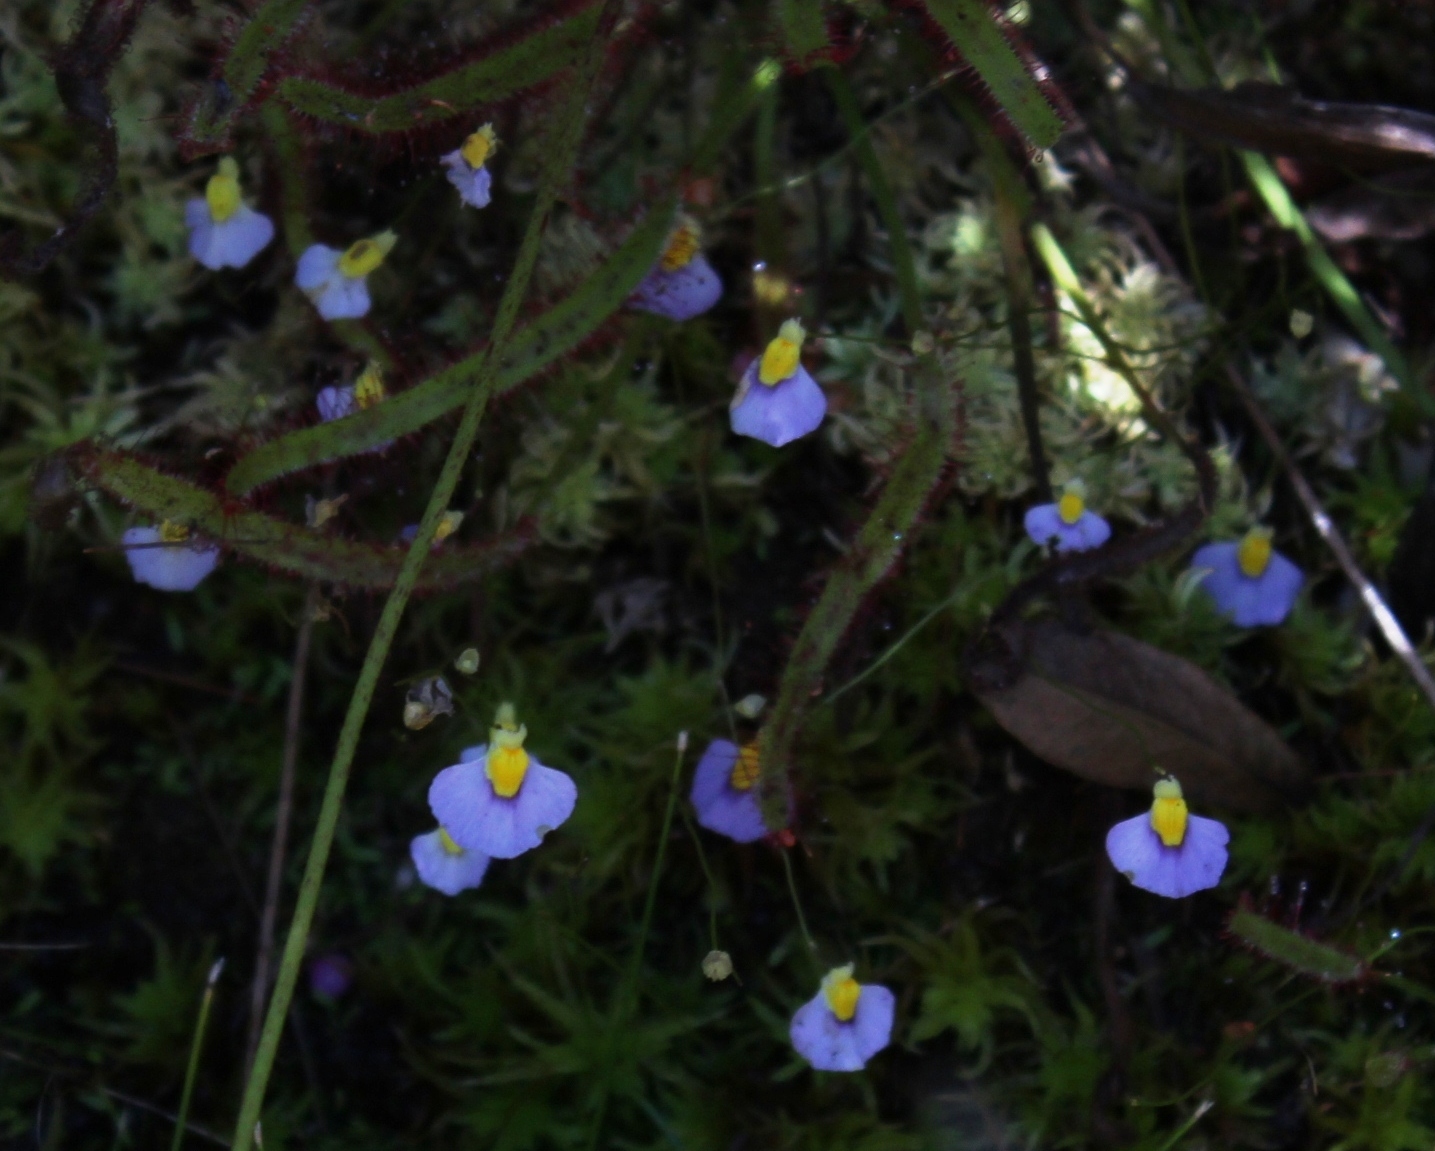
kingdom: Plantae
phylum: Tracheophyta
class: Magnoliopsida
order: Lamiales
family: Lentibulariaceae
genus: Utricularia
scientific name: Utricularia bisquamata
